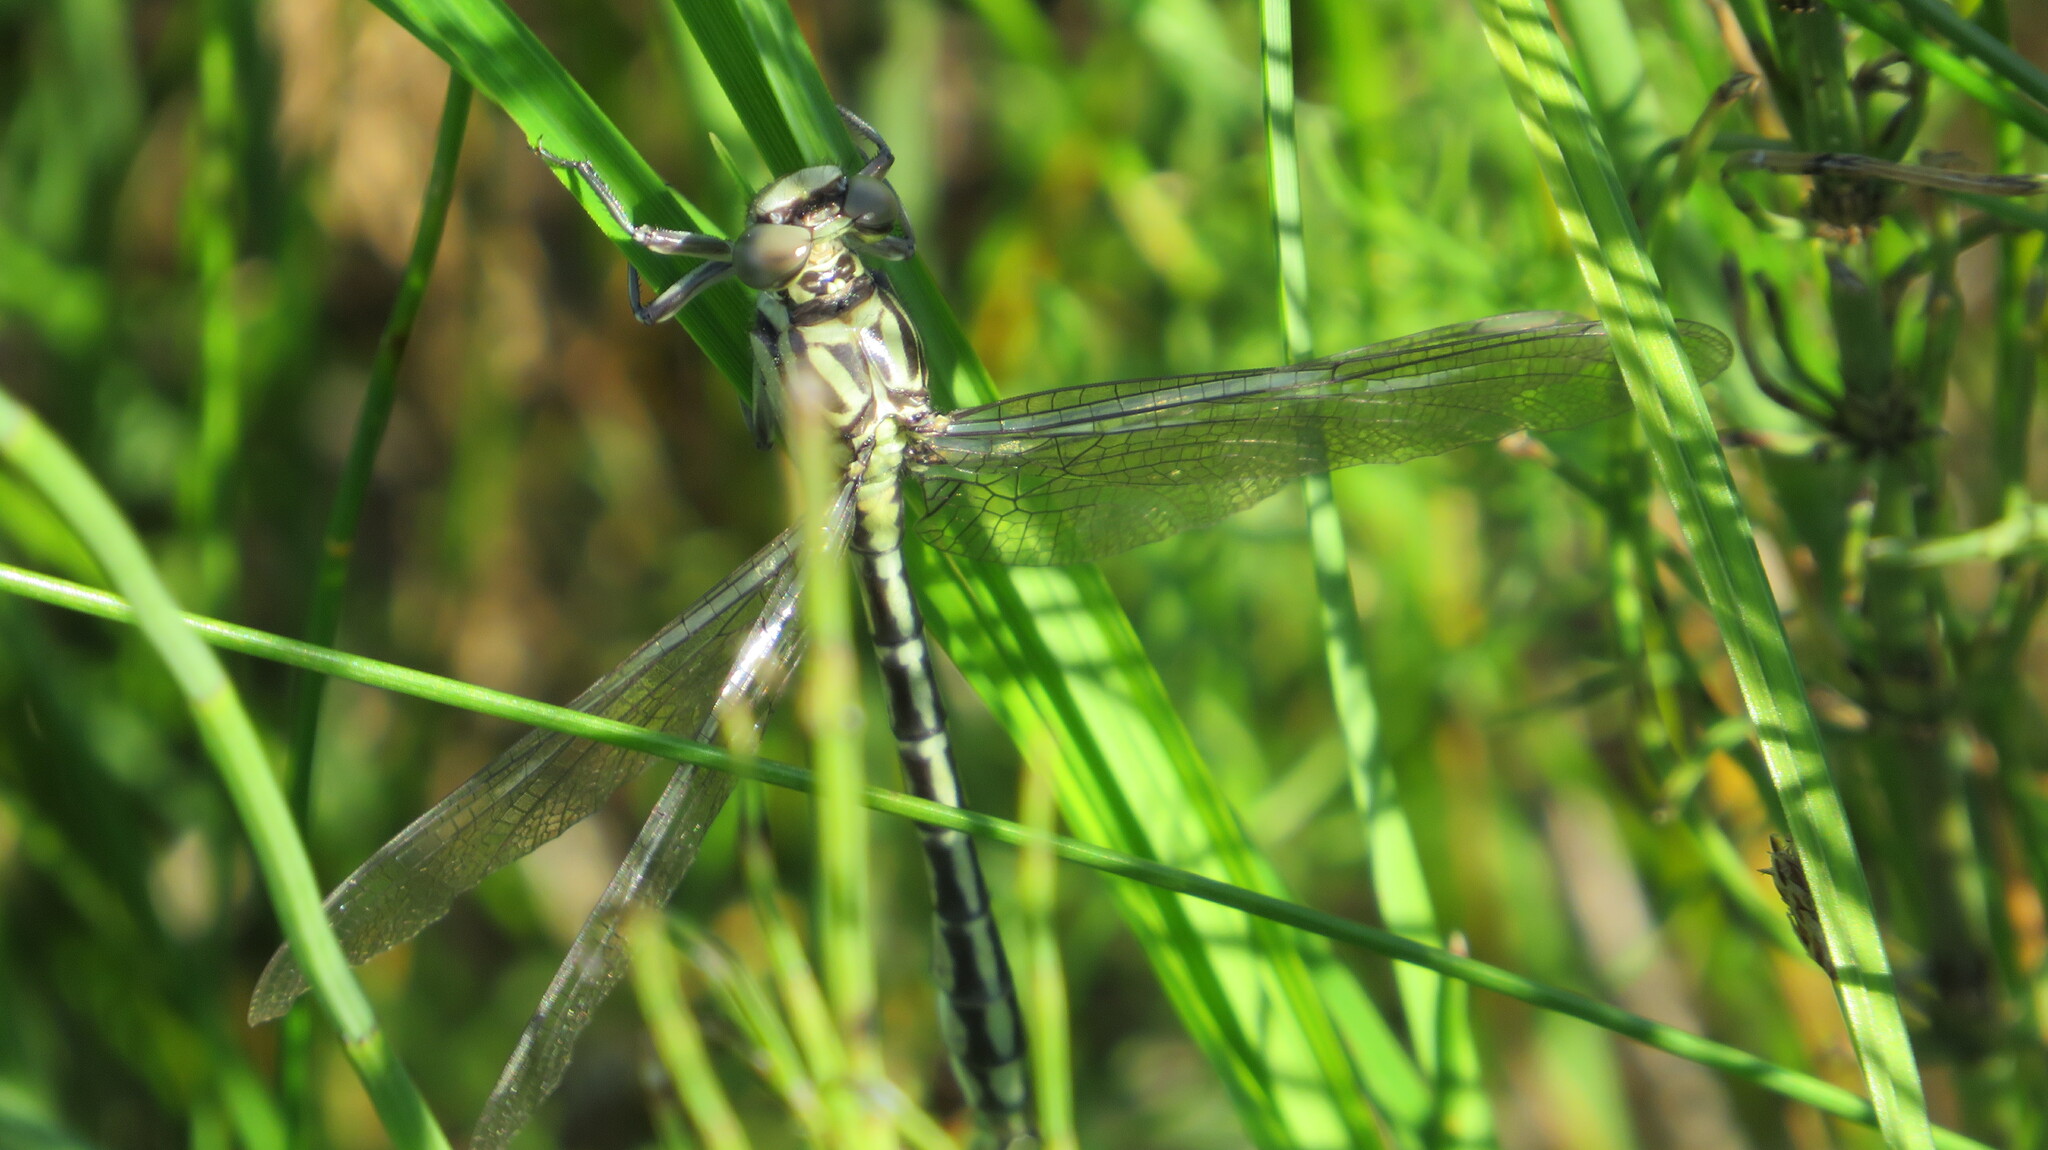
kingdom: Animalia
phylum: Arthropoda
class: Insecta
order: Odonata
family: Gomphidae
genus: Stylurus
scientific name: Stylurus flavipes
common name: River clubtail
